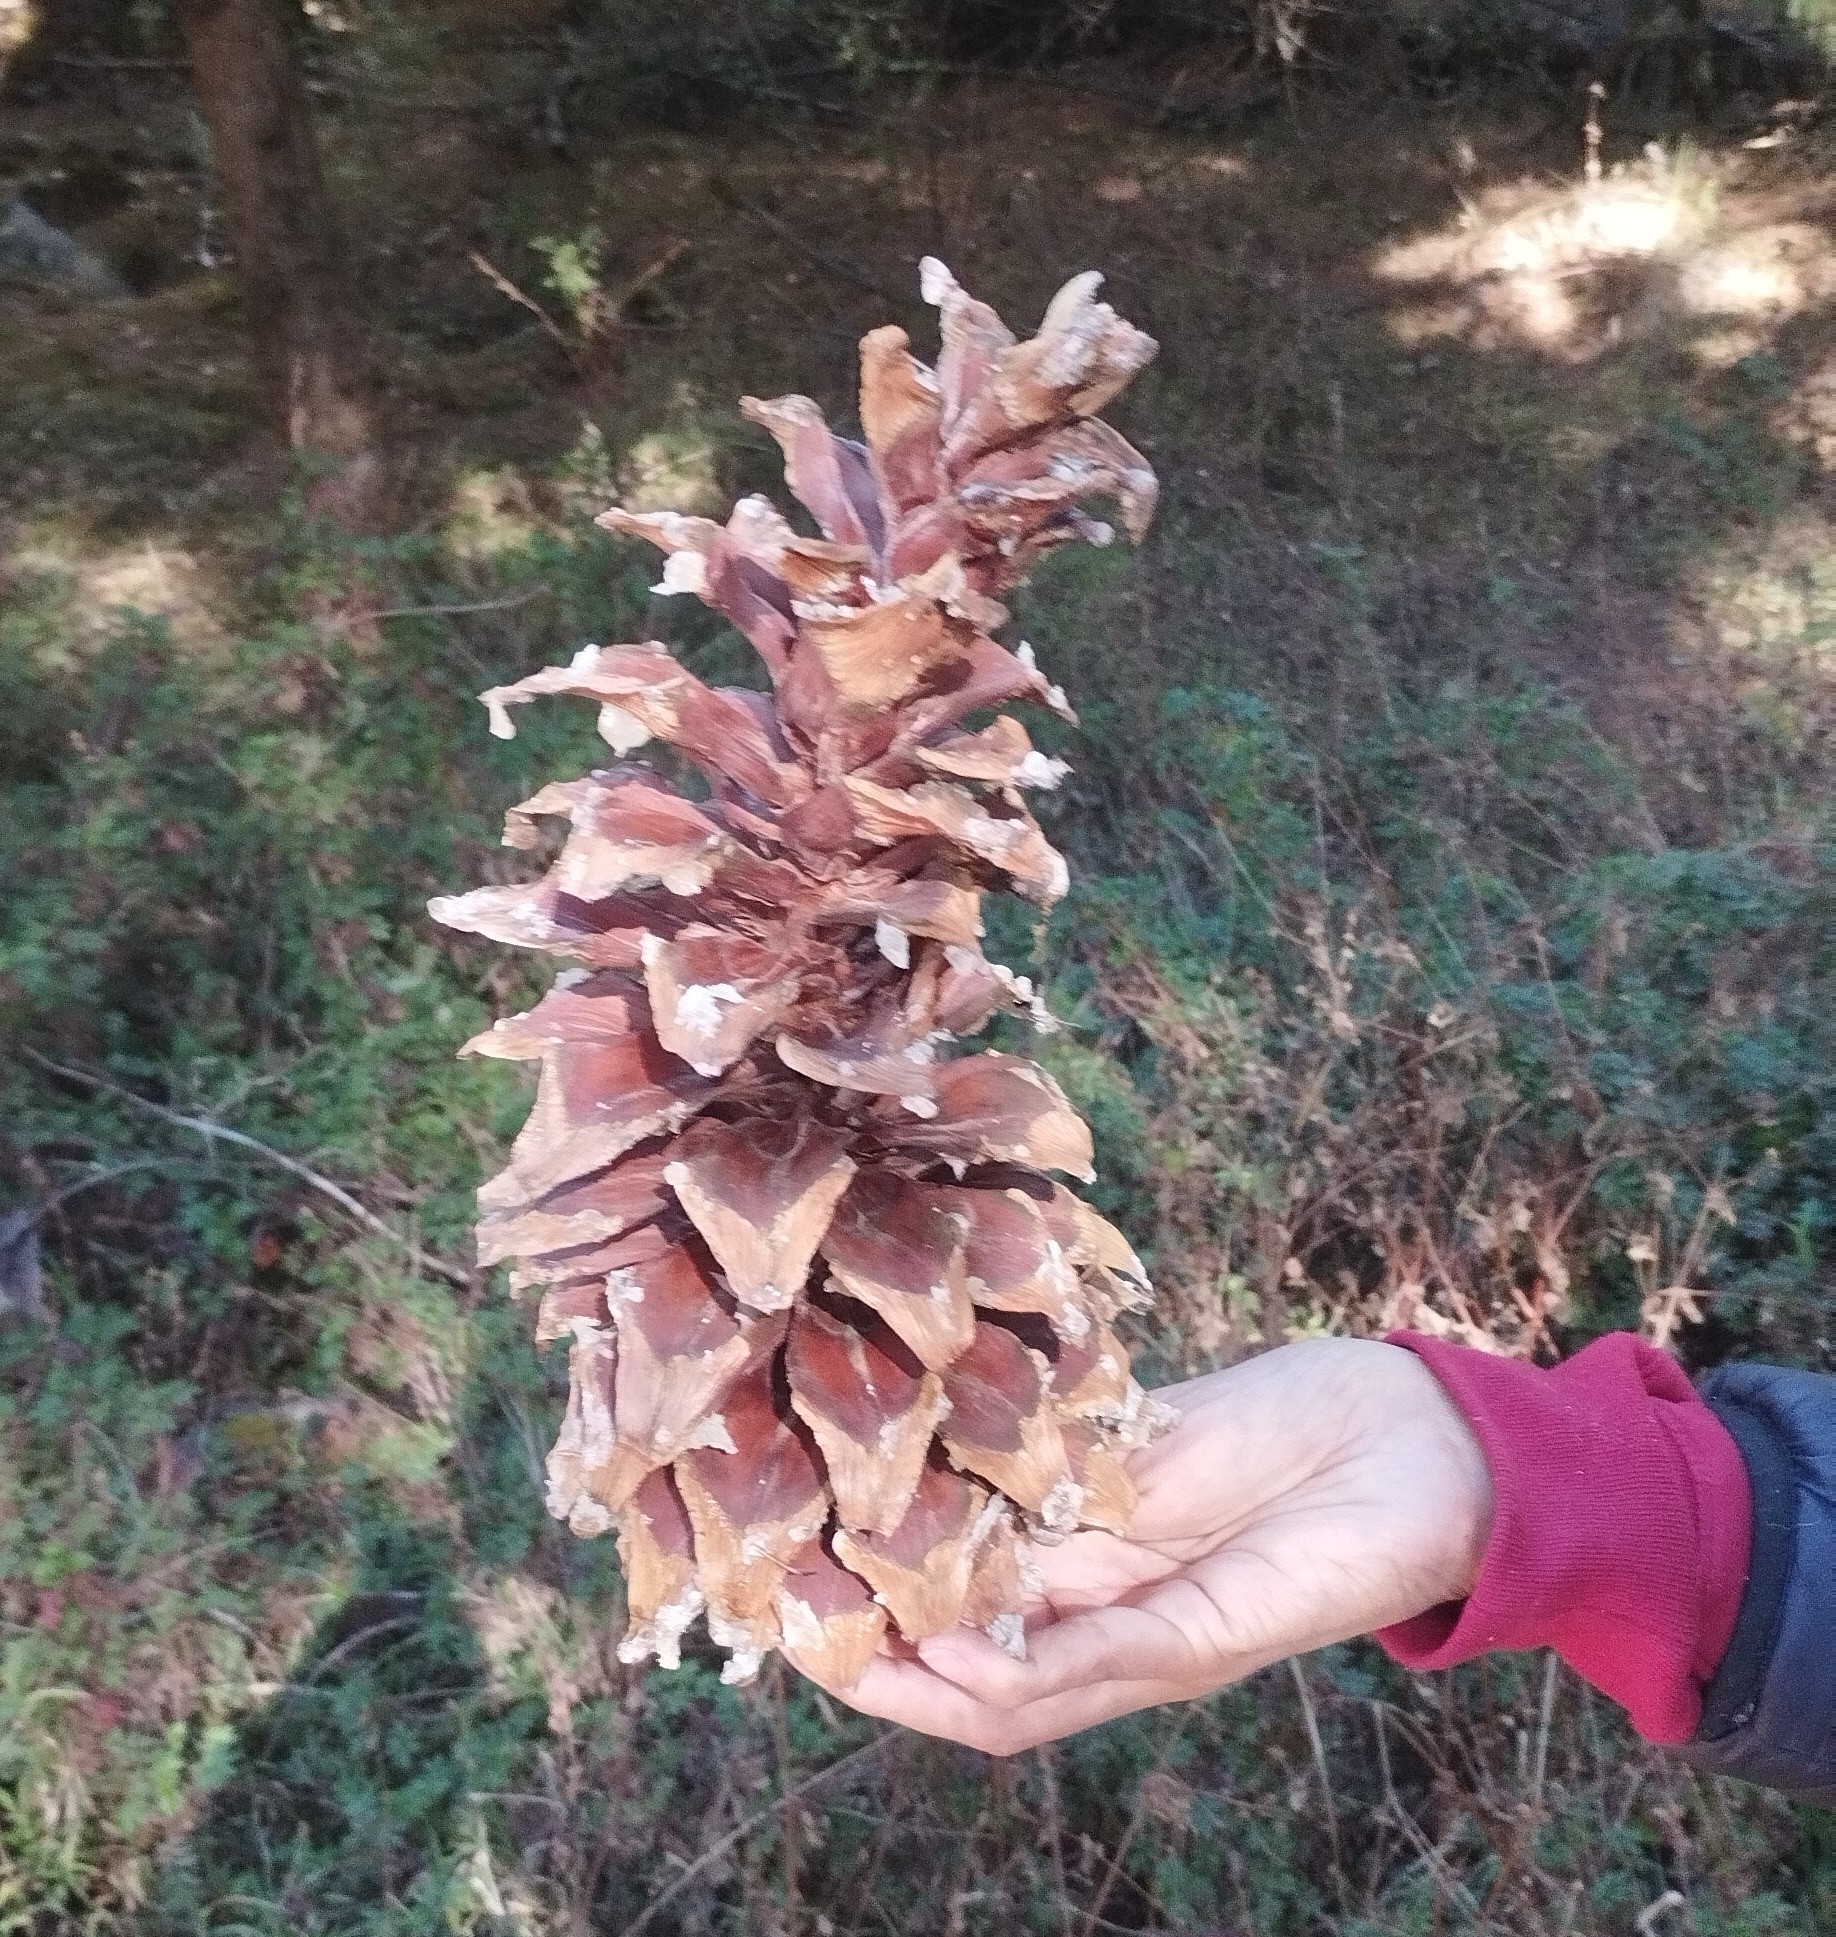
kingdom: Plantae
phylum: Tracheophyta
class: Pinopsida
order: Pinales
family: Pinaceae
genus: Pinus
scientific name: Pinus ayacahuite
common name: Mexican white pine
